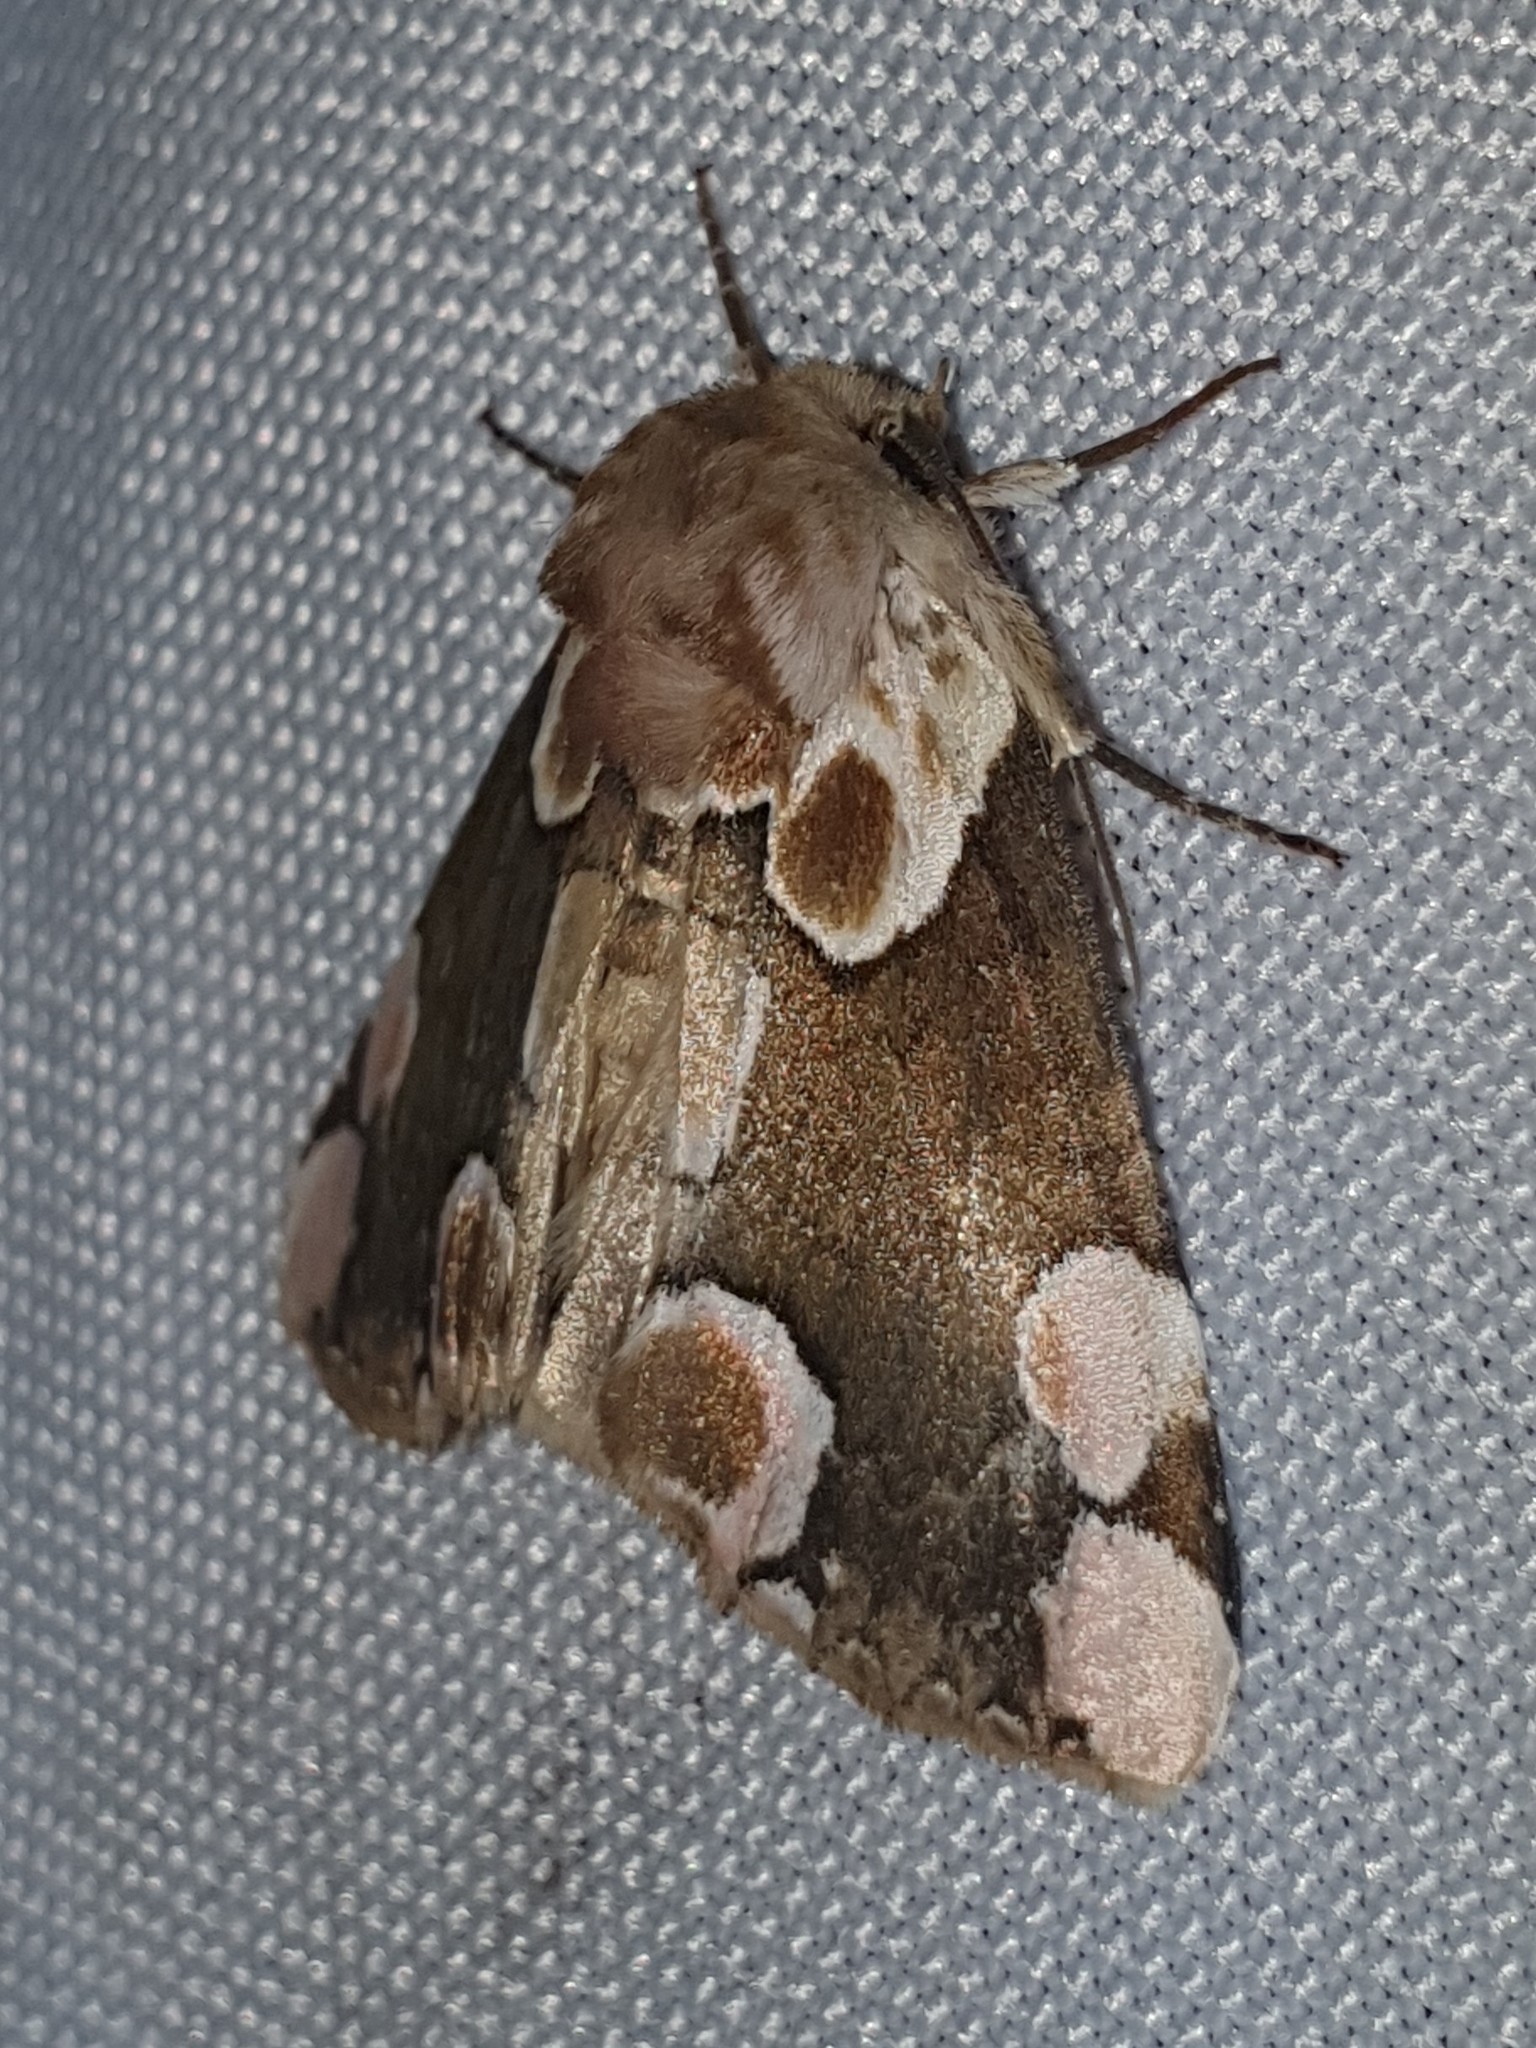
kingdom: Animalia
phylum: Arthropoda
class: Insecta
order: Lepidoptera
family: Drepanidae
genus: Thyatira
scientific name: Thyatira batis
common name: Peach blossom
